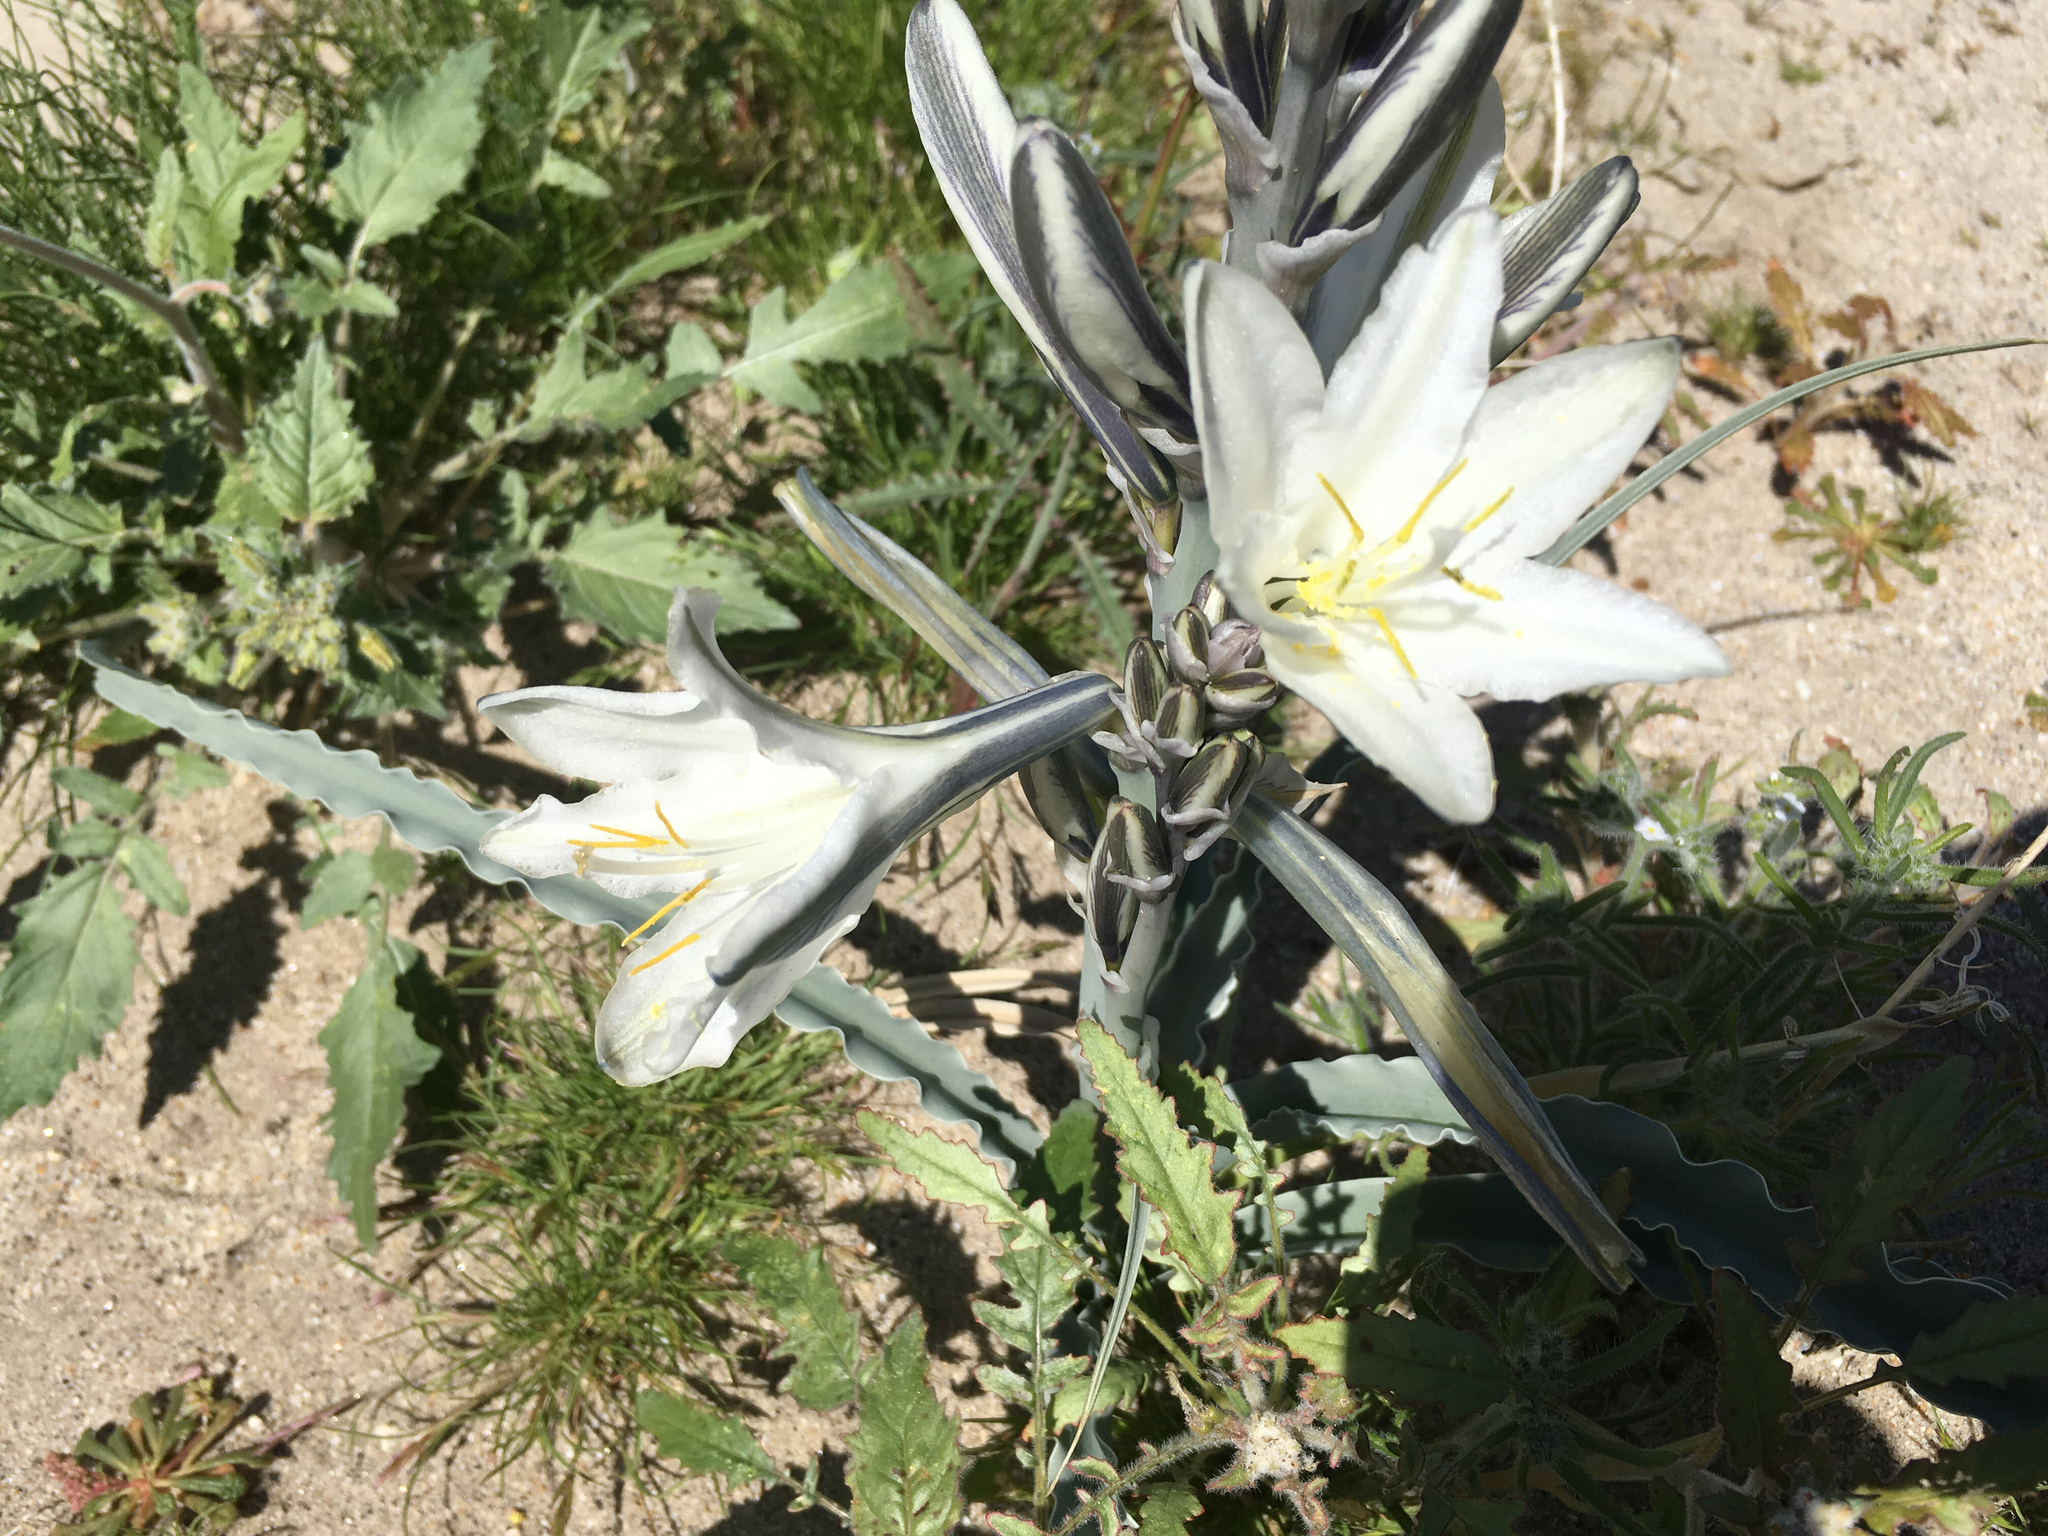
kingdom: Plantae
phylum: Tracheophyta
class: Liliopsida
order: Asparagales
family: Asparagaceae
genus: Hesperocallis
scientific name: Hesperocallis undulata
